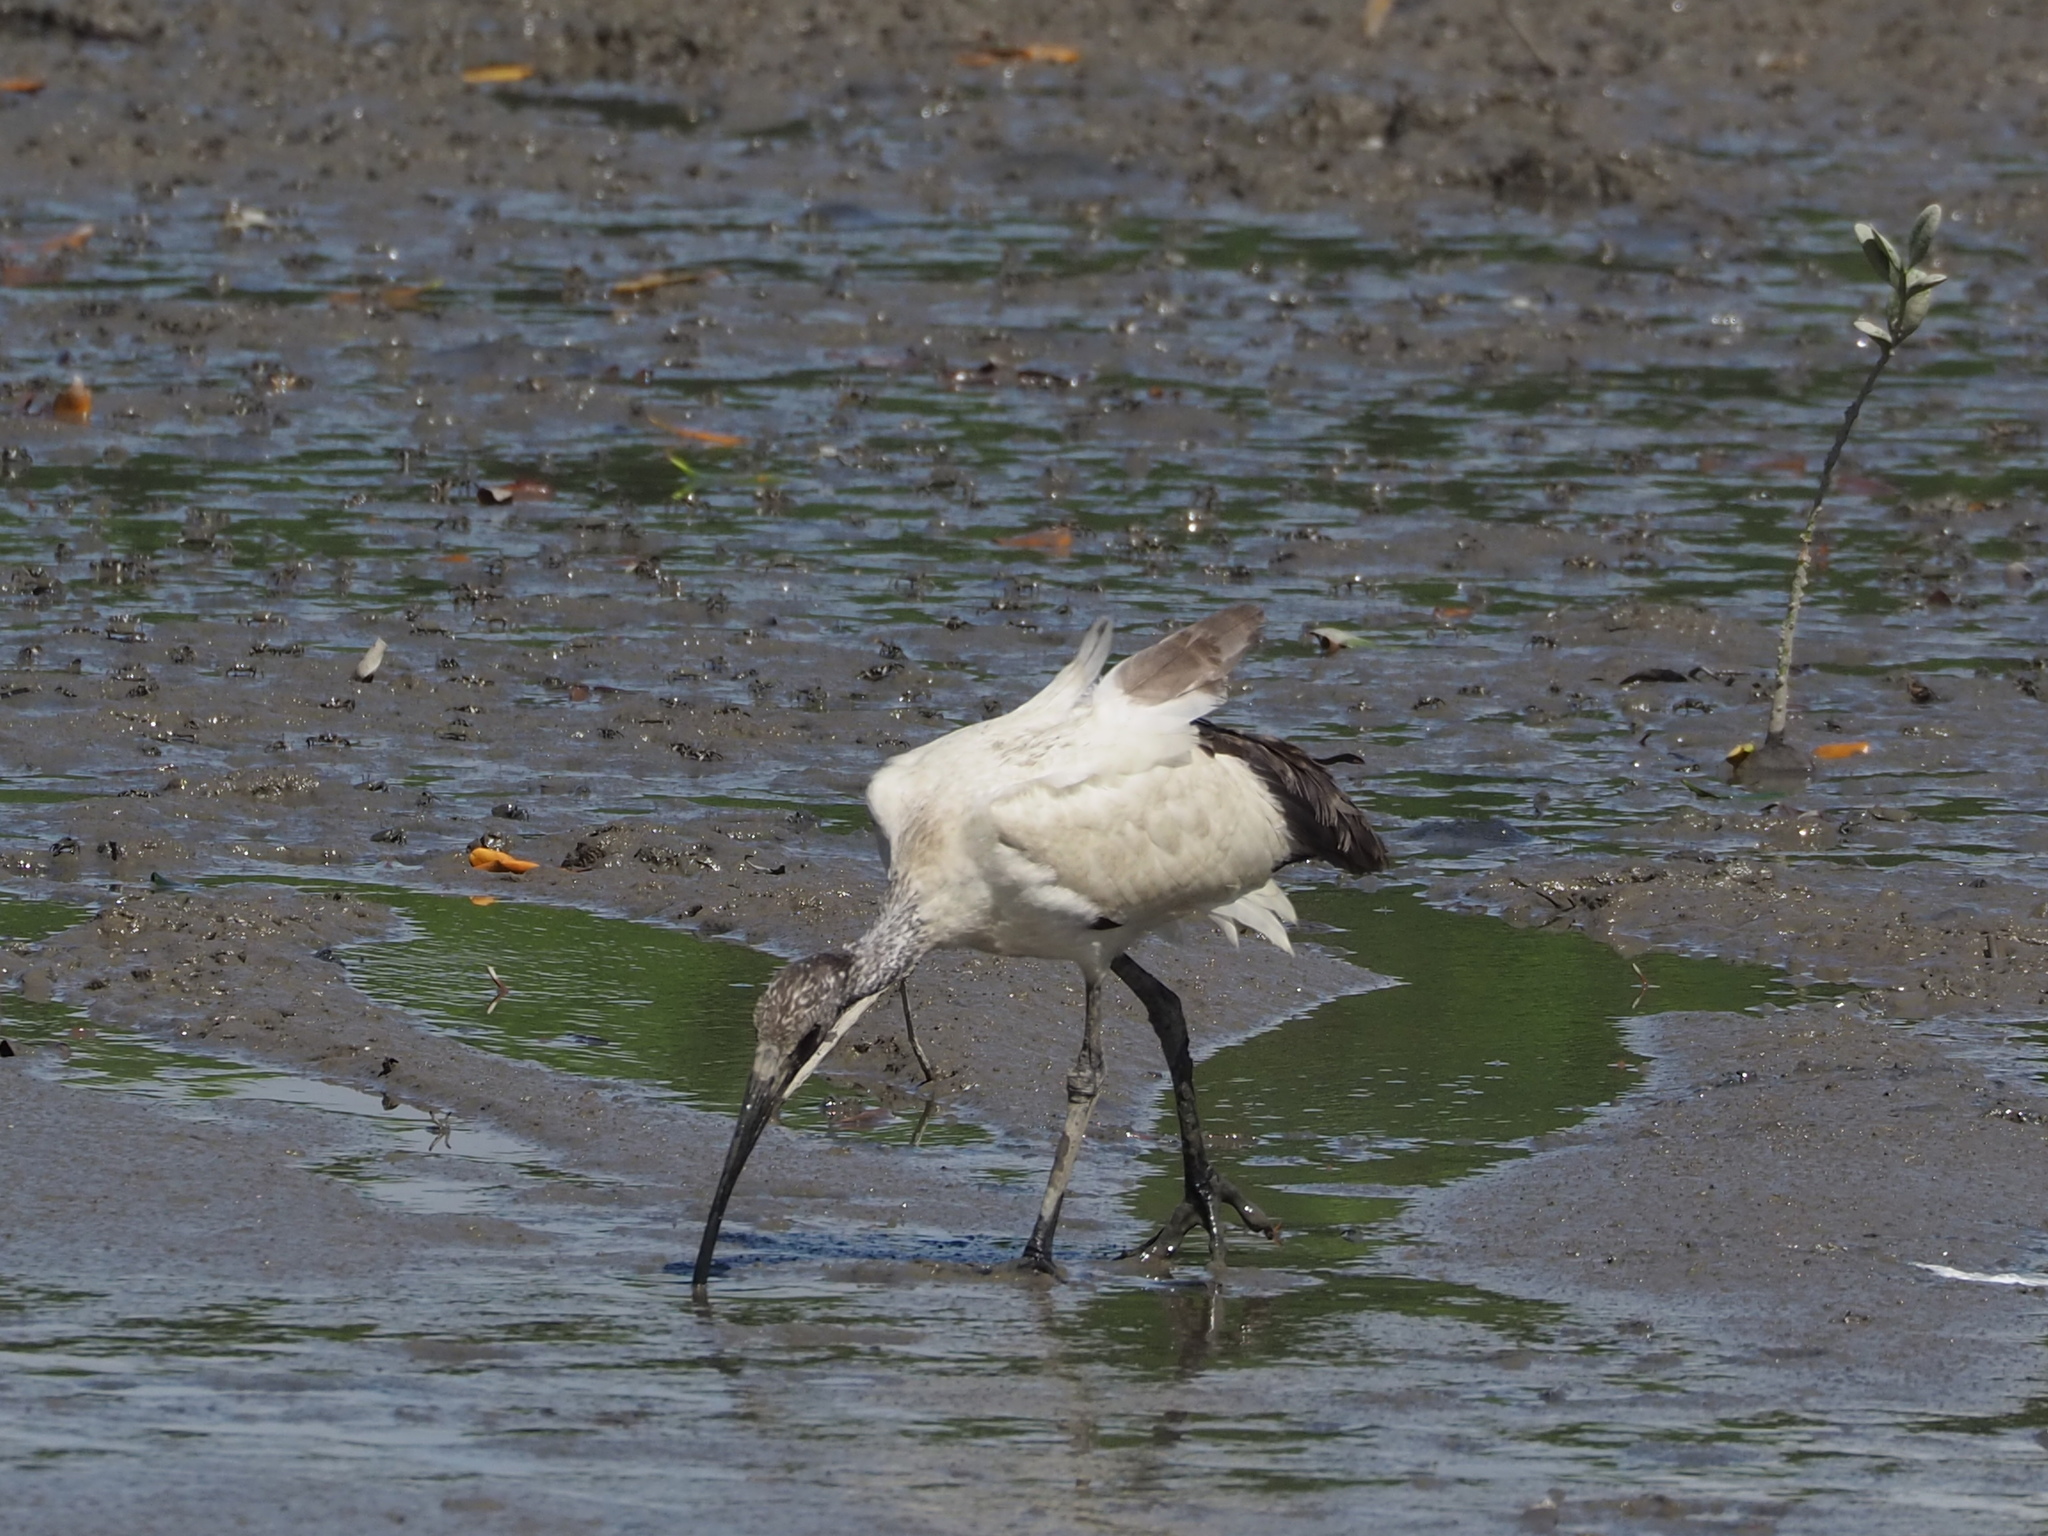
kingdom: Animalia
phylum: Chordata
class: Aves
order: Pelecaniformes
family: Threskiornithidae
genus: Threskiornis
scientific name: Threskiornis aethiopicus
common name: Sacred ibis
